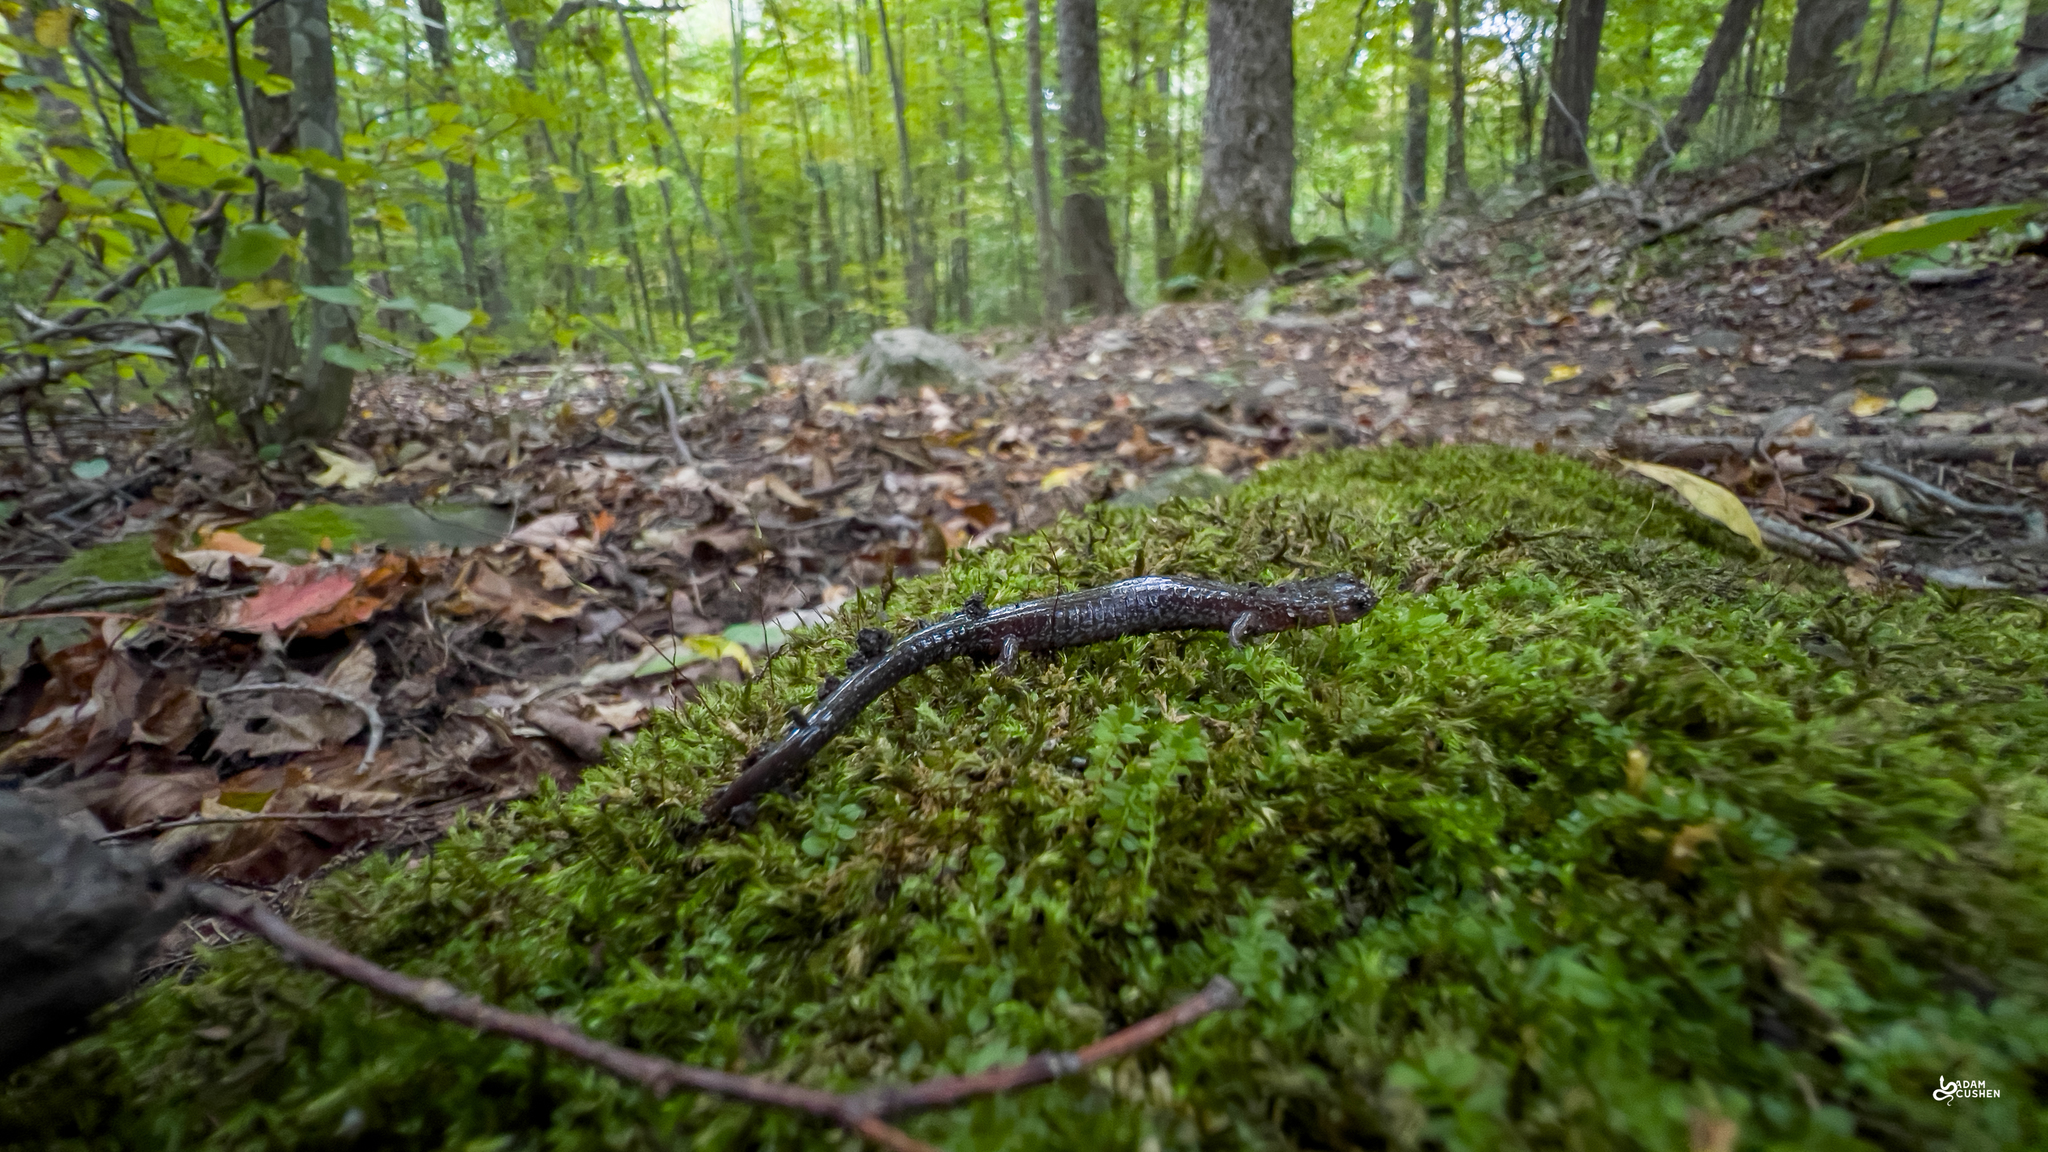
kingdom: Animalia
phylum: Chordata
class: Amphibia
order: Caudata
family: Plethodontidae
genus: Plethodon
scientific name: Plethodon cinereus
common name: Redback salamander
